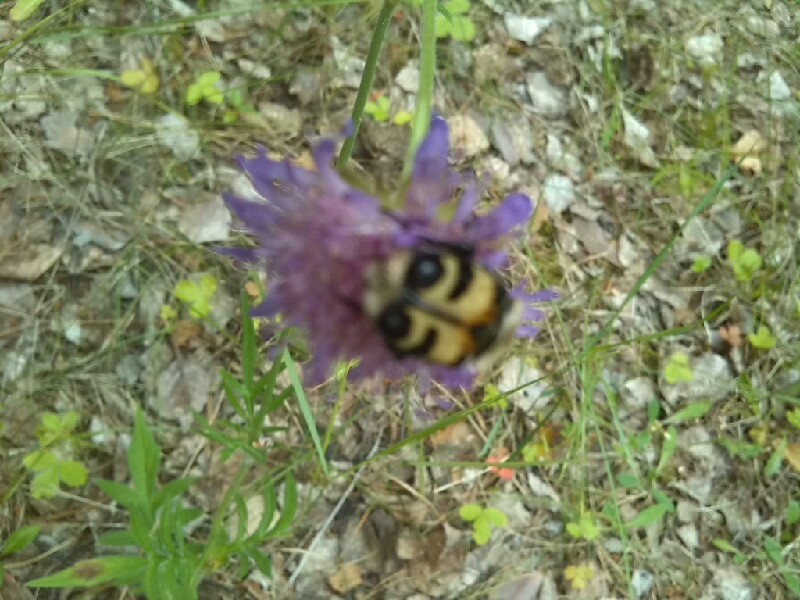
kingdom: Animalia
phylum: Arthropoda
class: Insecta
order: Coleoptera
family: Scarabaeidae
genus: Trichius
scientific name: Trichius fasciatus
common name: Bee beetle
